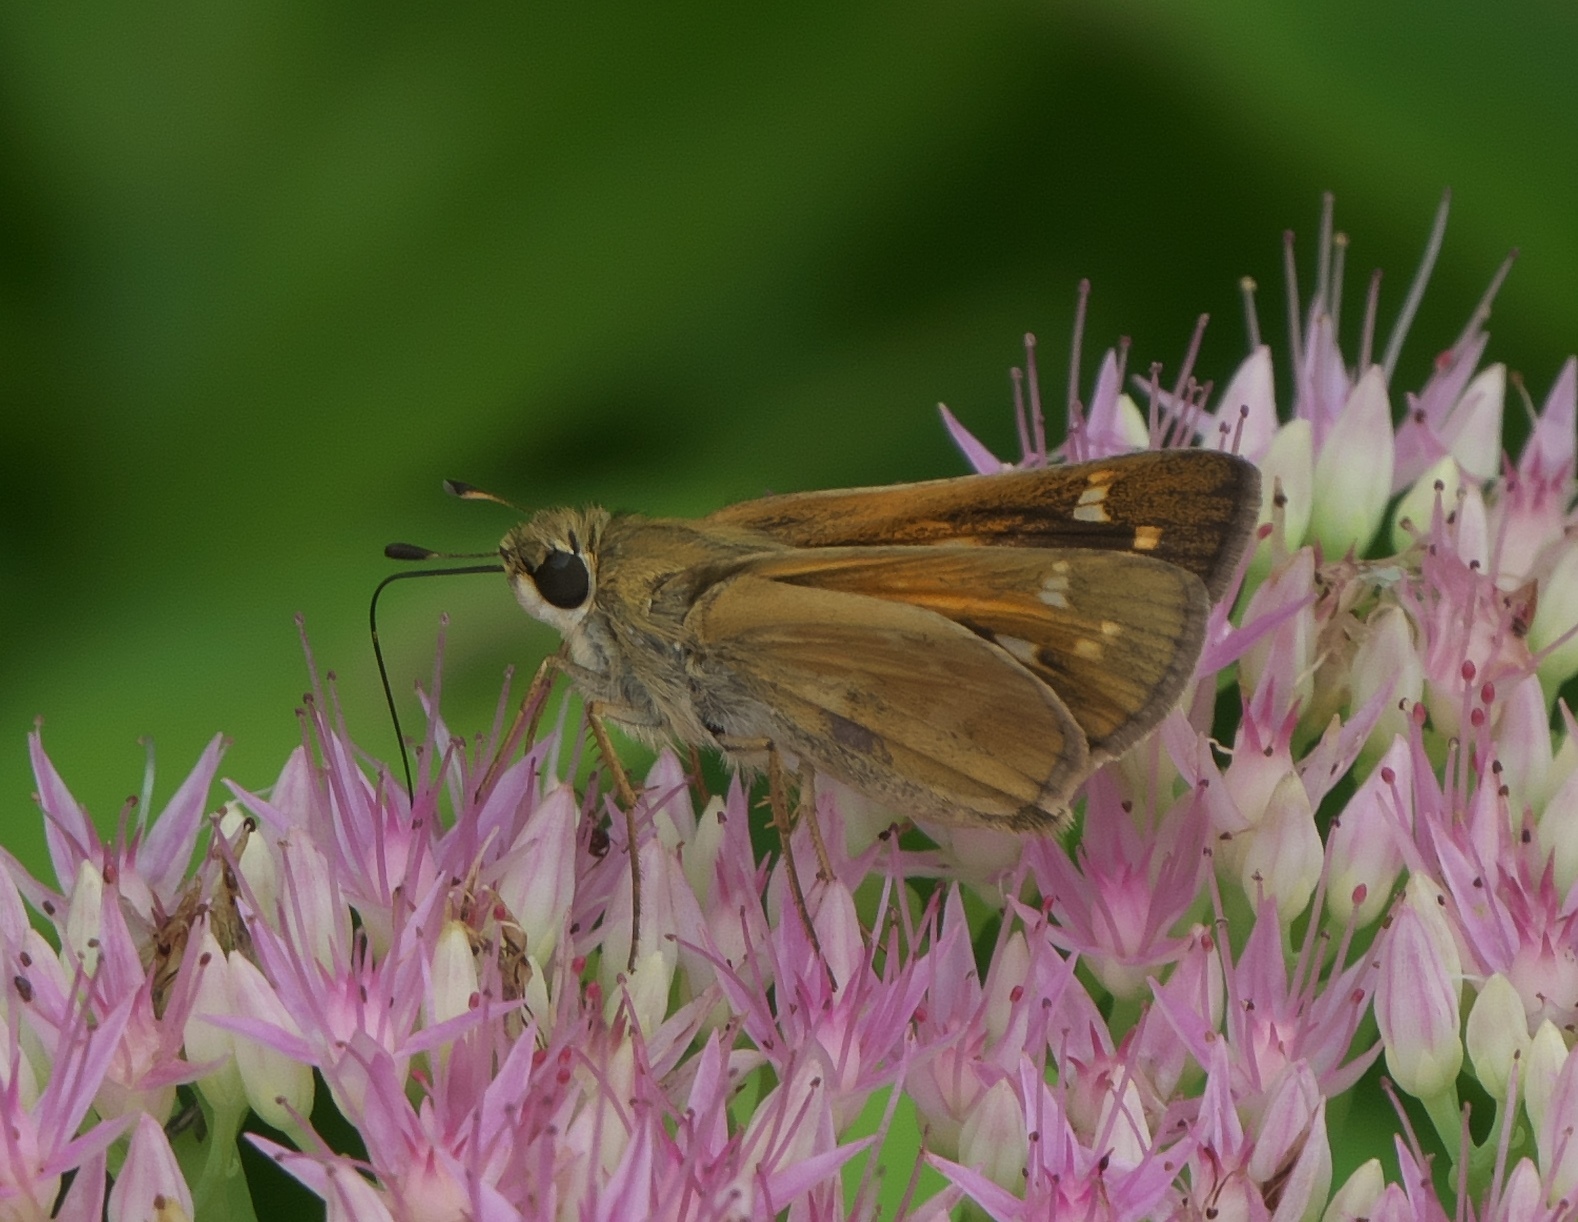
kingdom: Animalia
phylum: Arthropoda
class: Insecta
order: Lepidoptera
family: Hesperiidae
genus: Atalopedes
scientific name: Atalopedes
